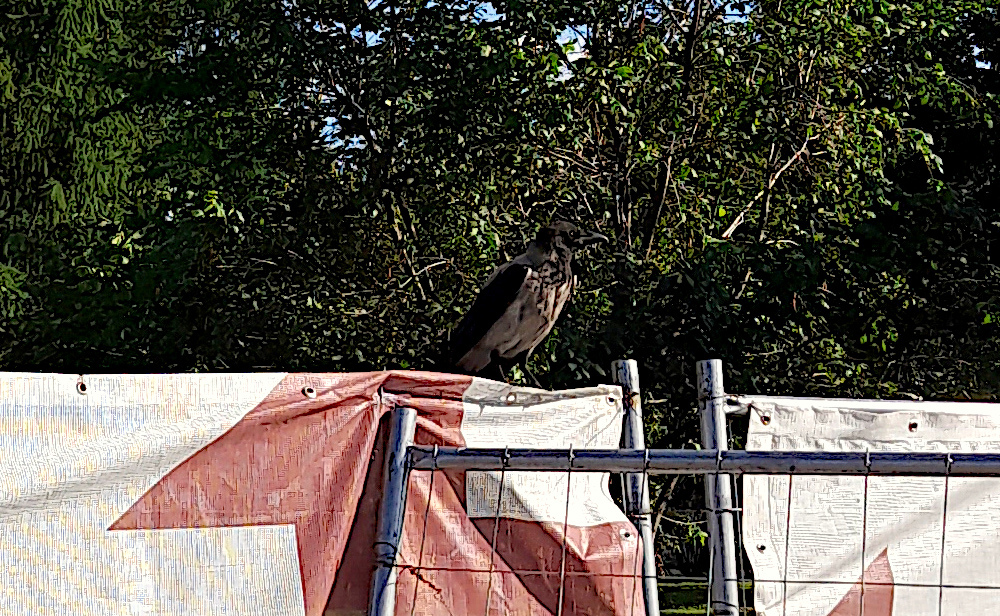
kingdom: Animalia
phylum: Chordata
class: Aves
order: Passeriformes
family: Corvidae
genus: Corvus
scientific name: Corvus cornix
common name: Hooded crow
